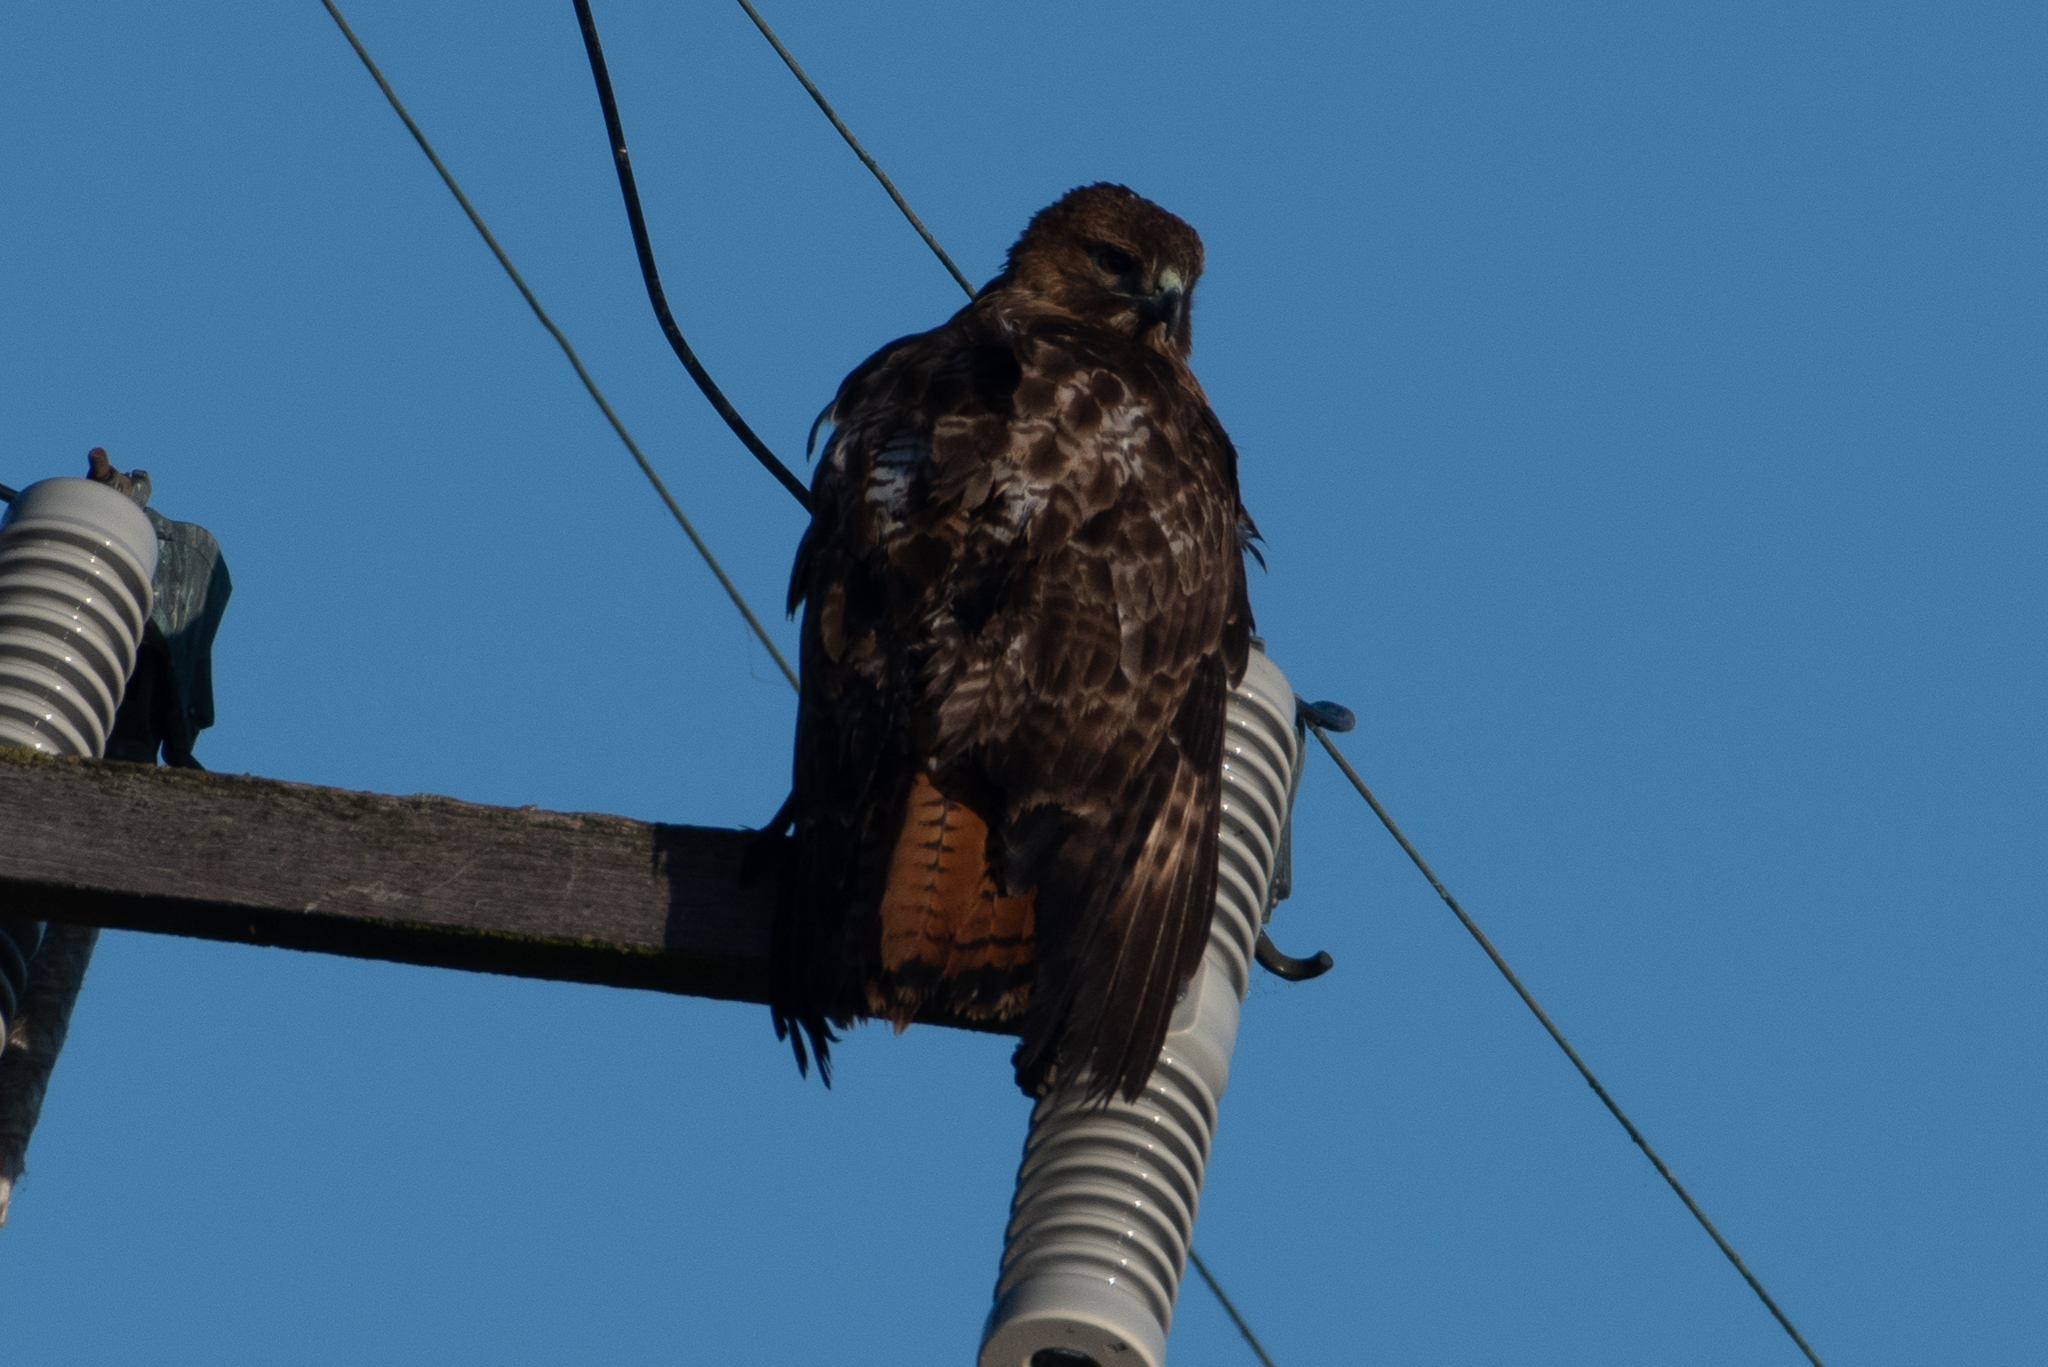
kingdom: Animalia
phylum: Chordata
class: Aves
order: Accipitriformes
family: Accipitridae
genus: Buteo
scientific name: Buteo jamaicensis
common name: Red-tailed hawk
